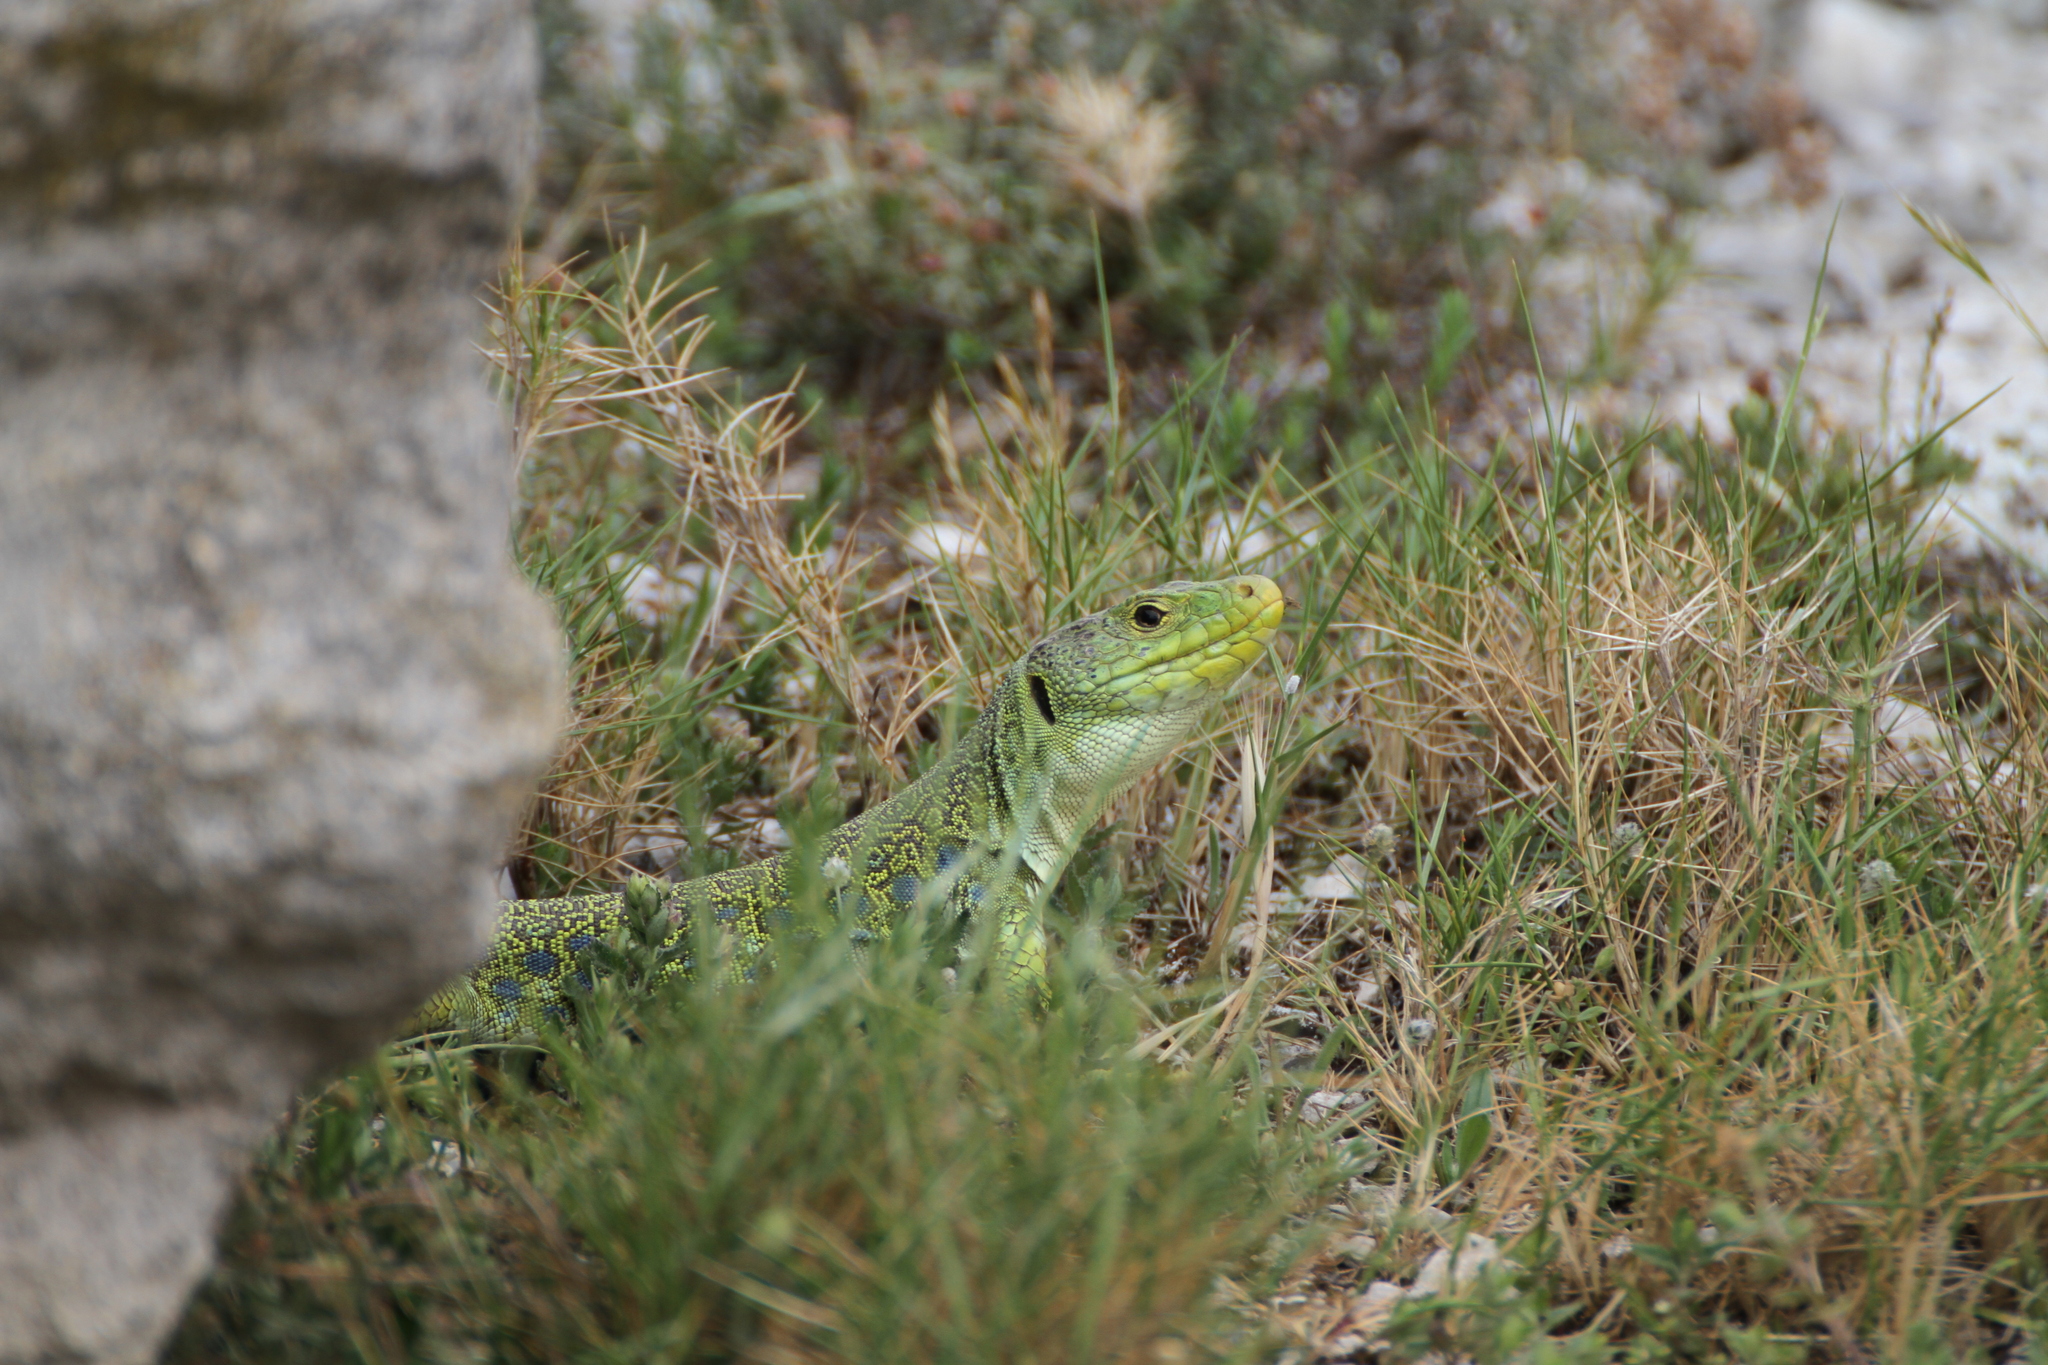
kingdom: Animalia
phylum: Chordata
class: Squamata
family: Lacertidae
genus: Timon
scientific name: Timon lepidus
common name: Ocellated lizard
